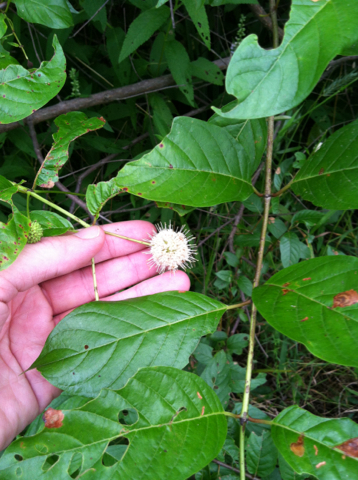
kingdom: Plantae
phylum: Tracheophyta
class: Magnoliopsida
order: Gentianales
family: Rubiaceae
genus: Cephalanthus
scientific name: Cephalanthus occidentalis
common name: Button-willow
